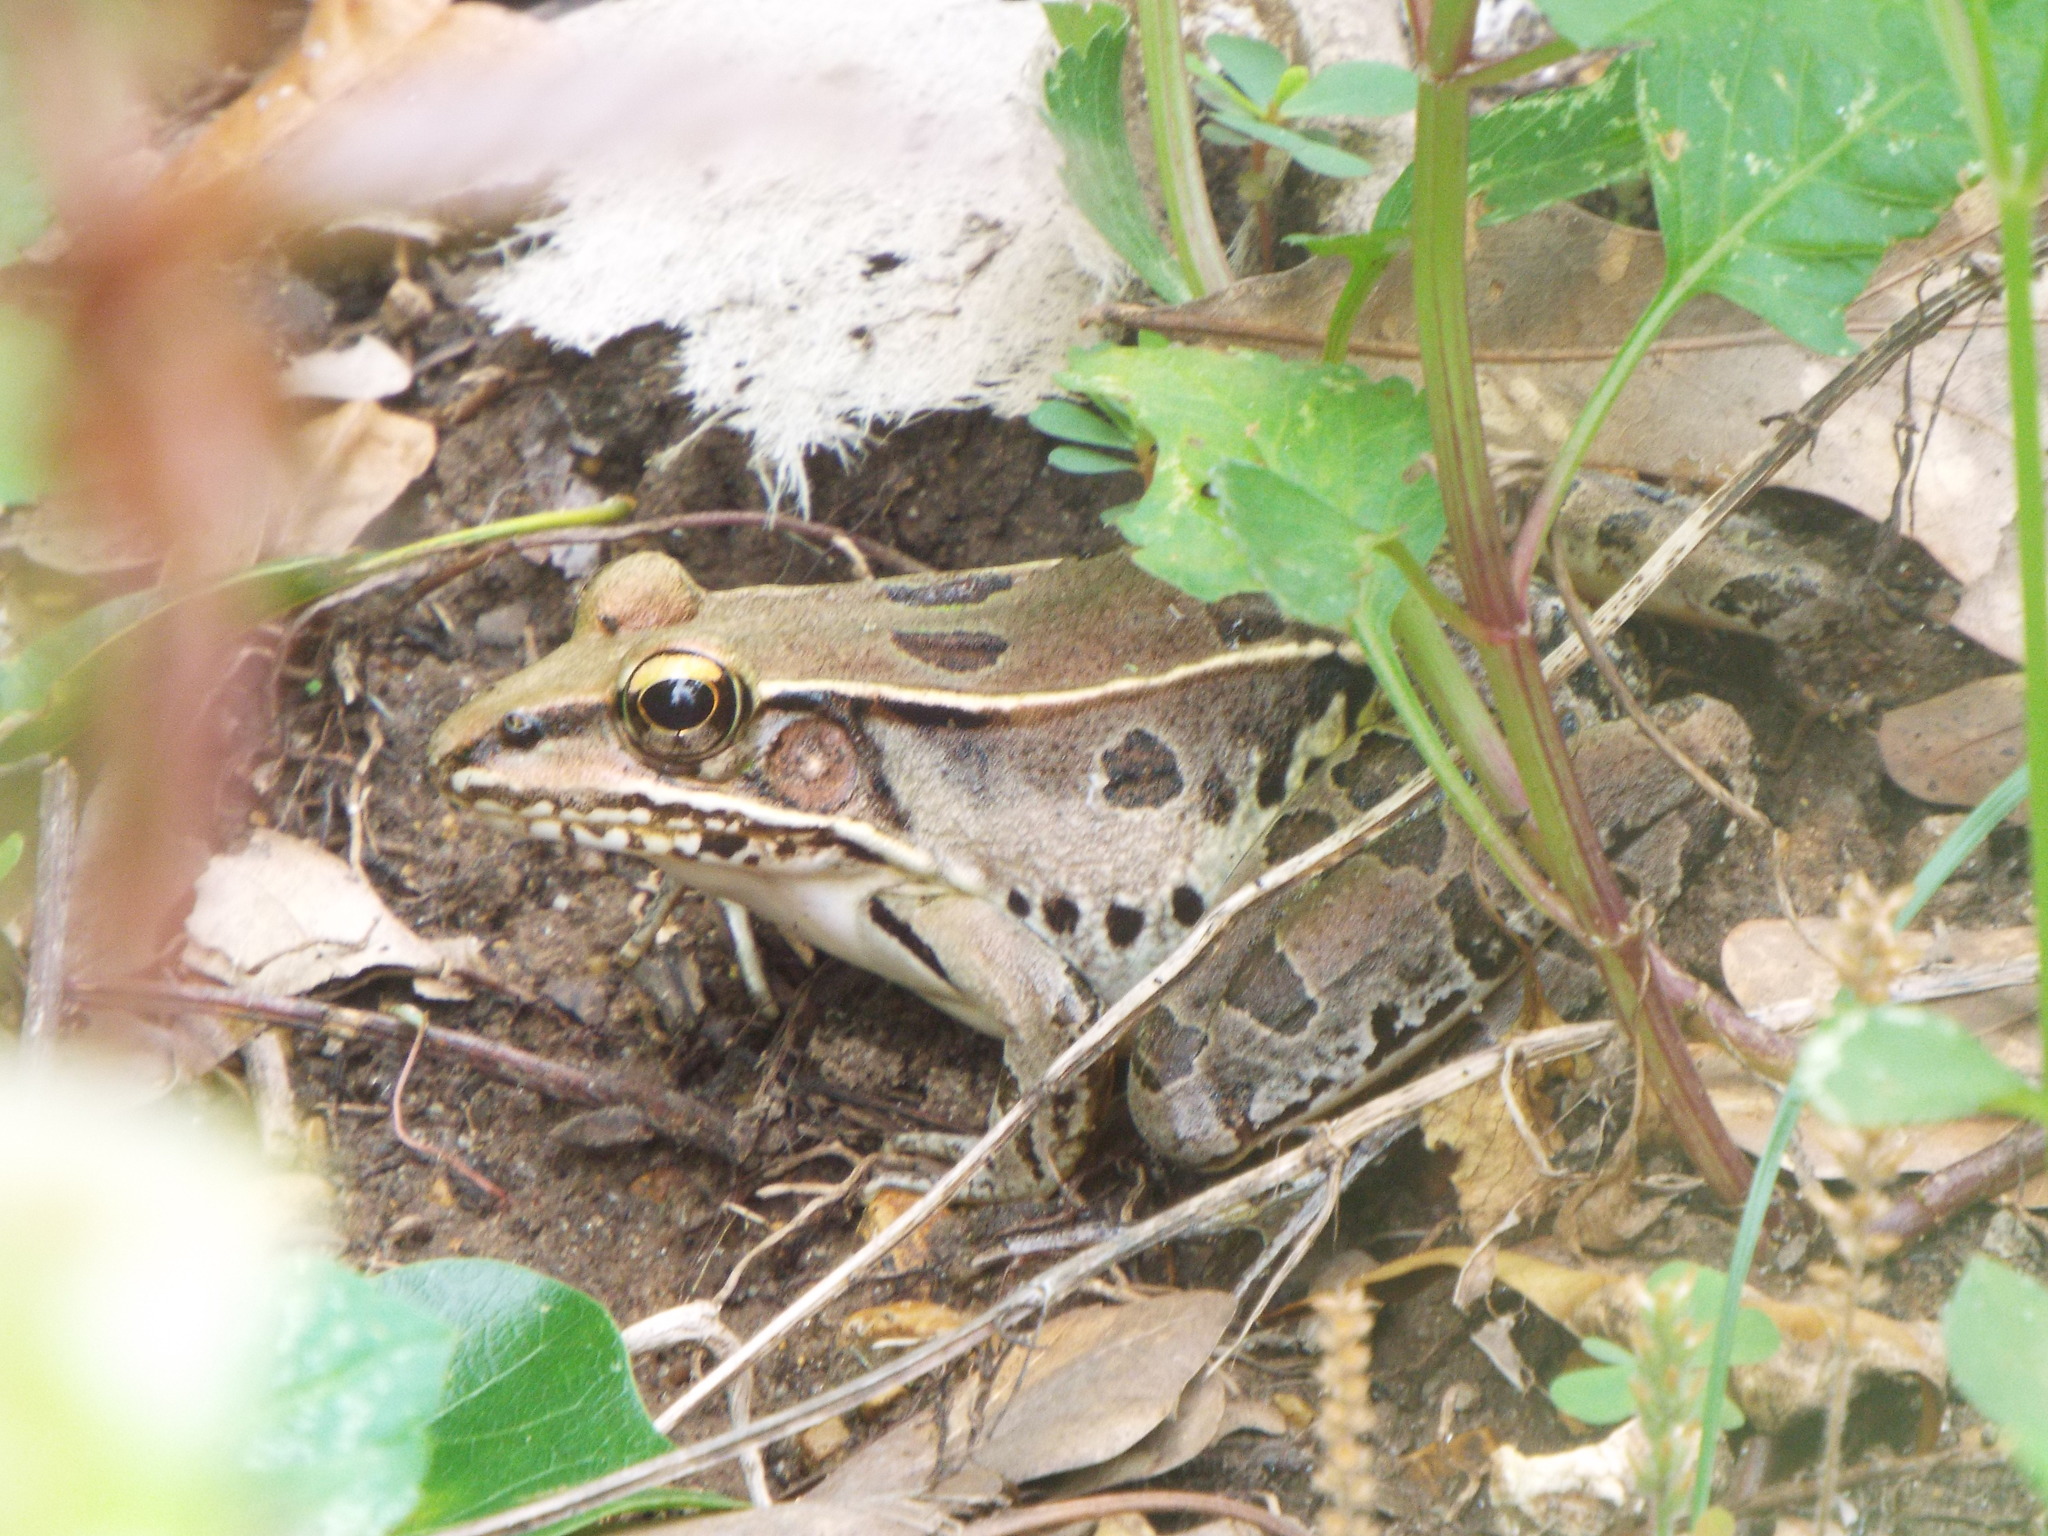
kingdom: Animalia
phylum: Chordata
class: Amphibia
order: Anura
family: Ranidae
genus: Lithobates
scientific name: Lithobates sphenocephalus
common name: Southern leopard frog
